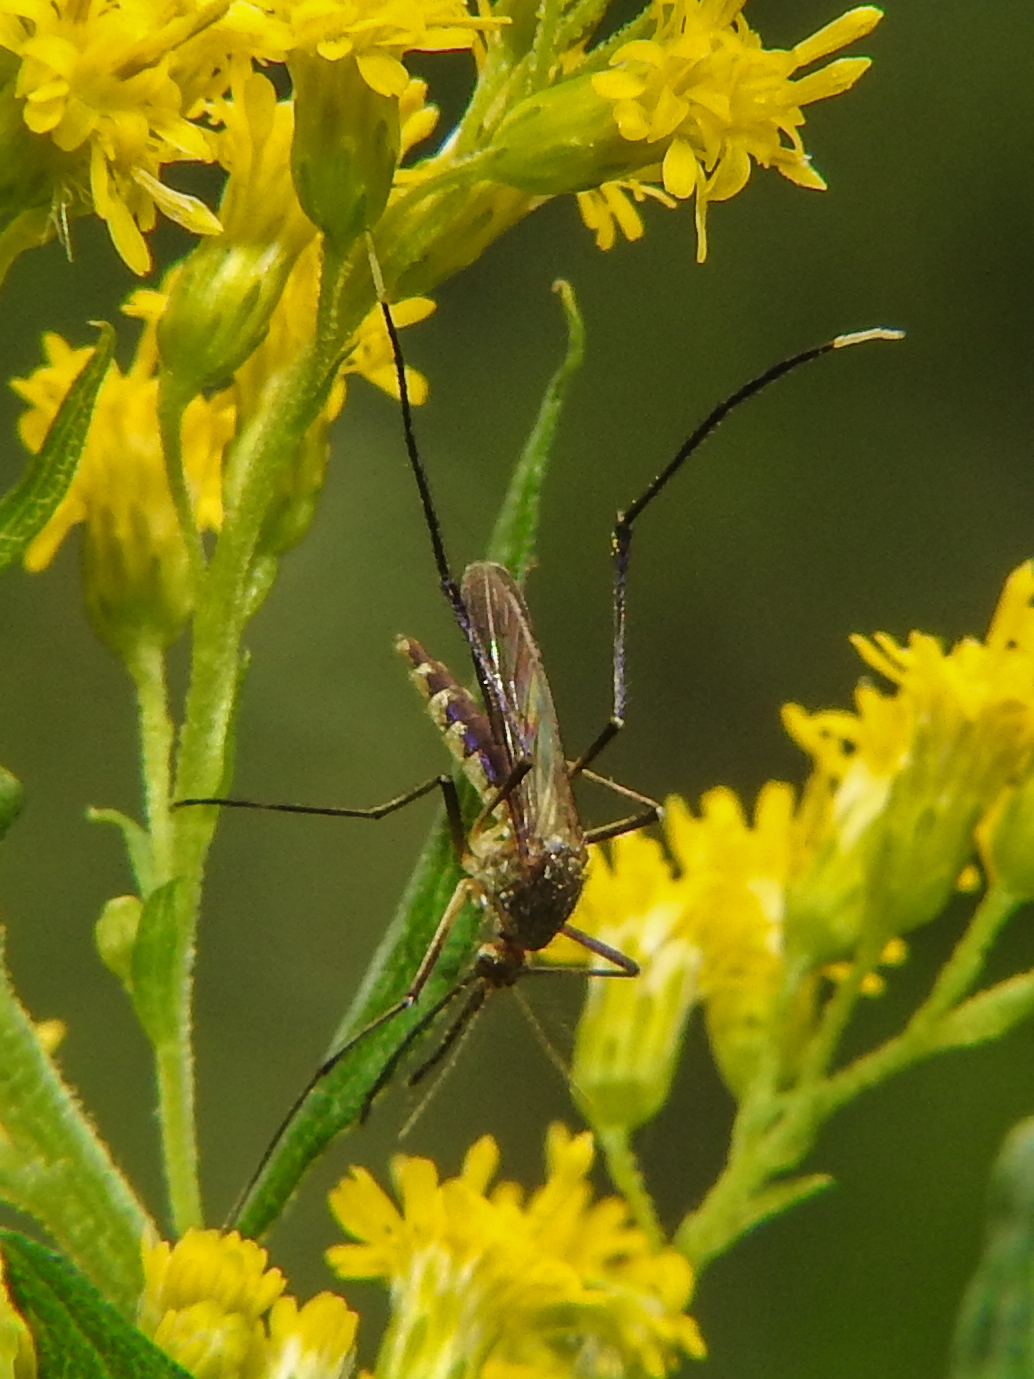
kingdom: Animalia
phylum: Arthropoda
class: Insecta
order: Diptera
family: Culicidae
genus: Psorophora
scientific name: Psorophora ferox
